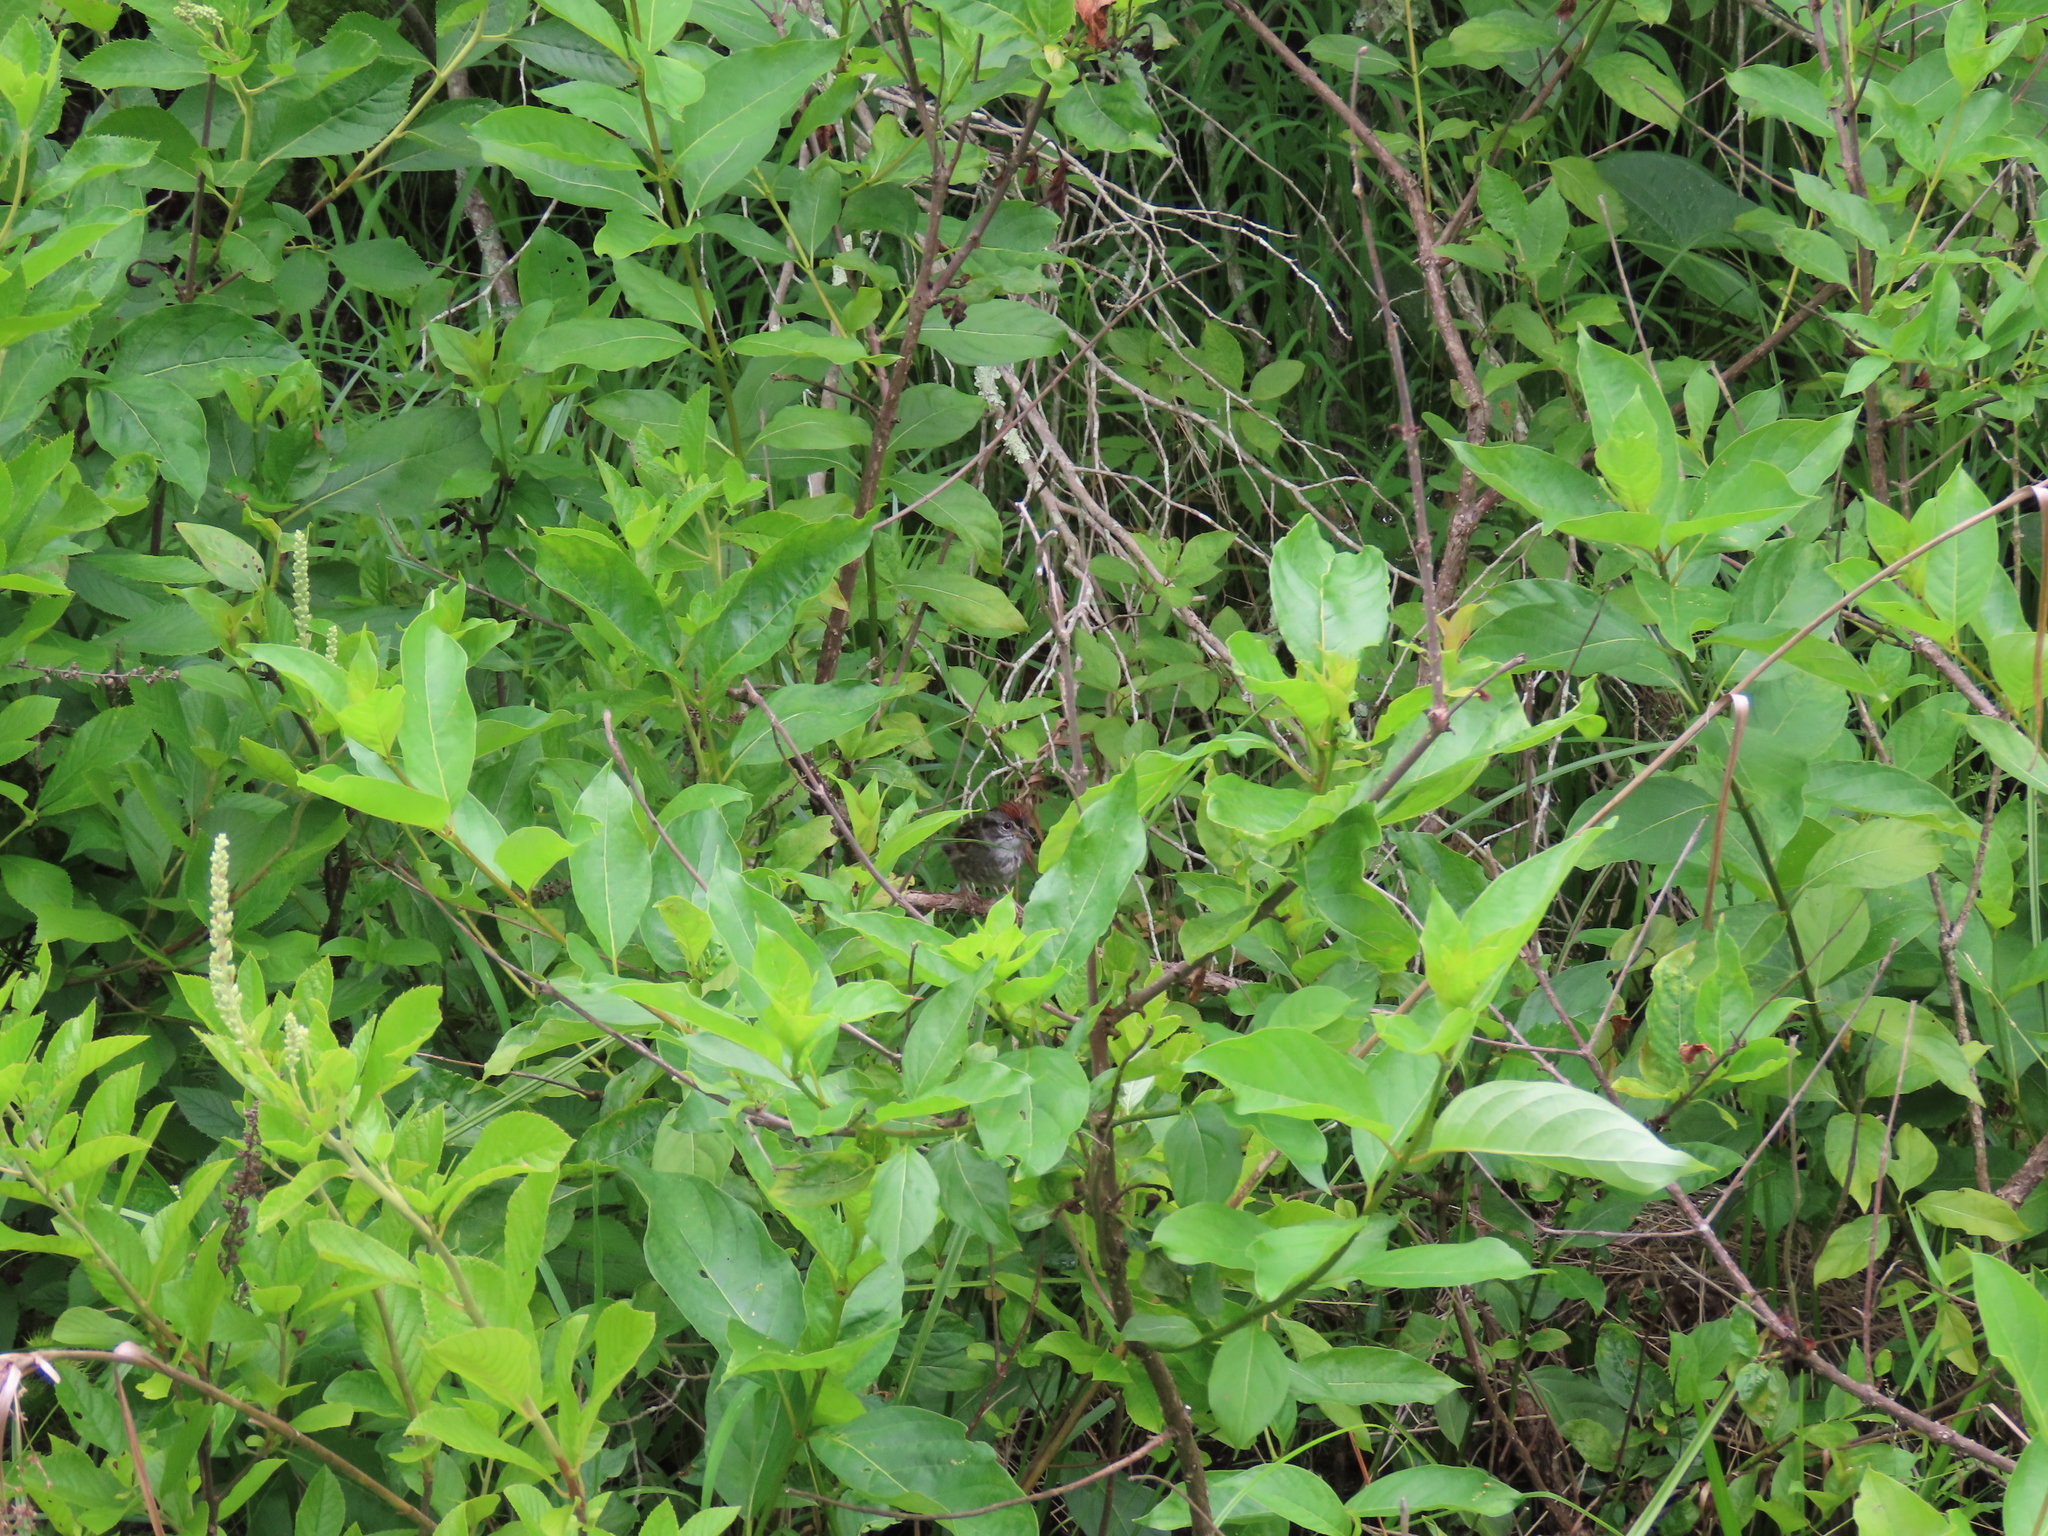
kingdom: Animalia
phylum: Chordata
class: Aves
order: Passeriformes
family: Passerellidae
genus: Melospiza
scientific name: Melospiza georgiana
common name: Swamp sparrow
